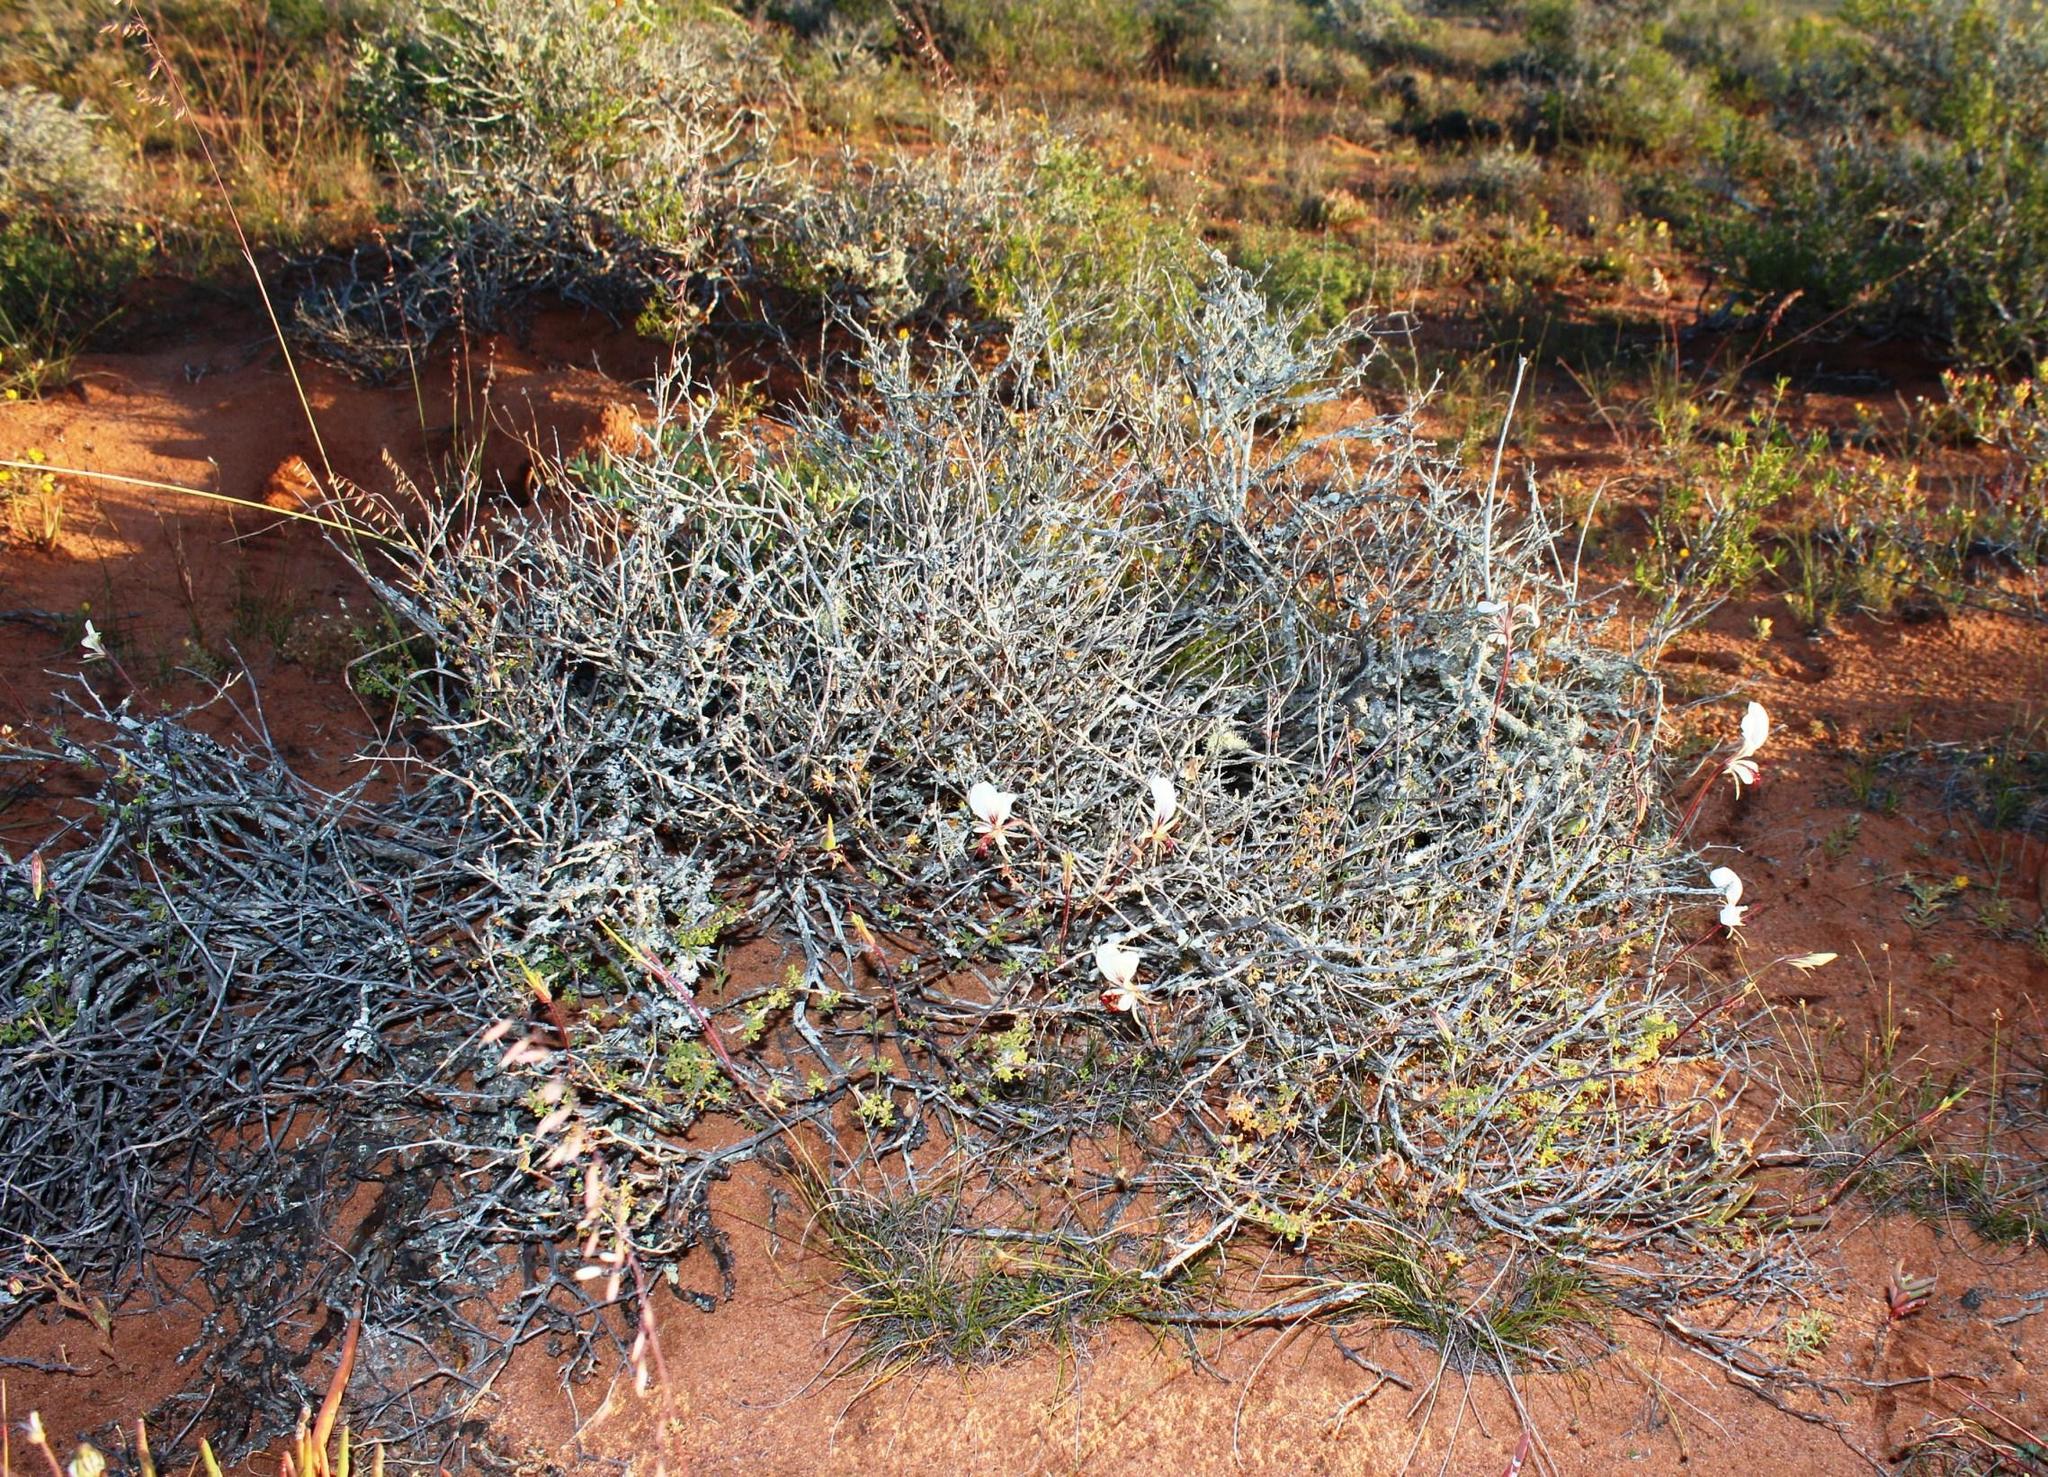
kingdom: Plantae
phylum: Tracheophyta
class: Magnoliopsida
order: Geraniales
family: Geraniaceae
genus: Pelargonium
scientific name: Pelargonium praemorsum
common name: Quinate-leaf pelargonium
